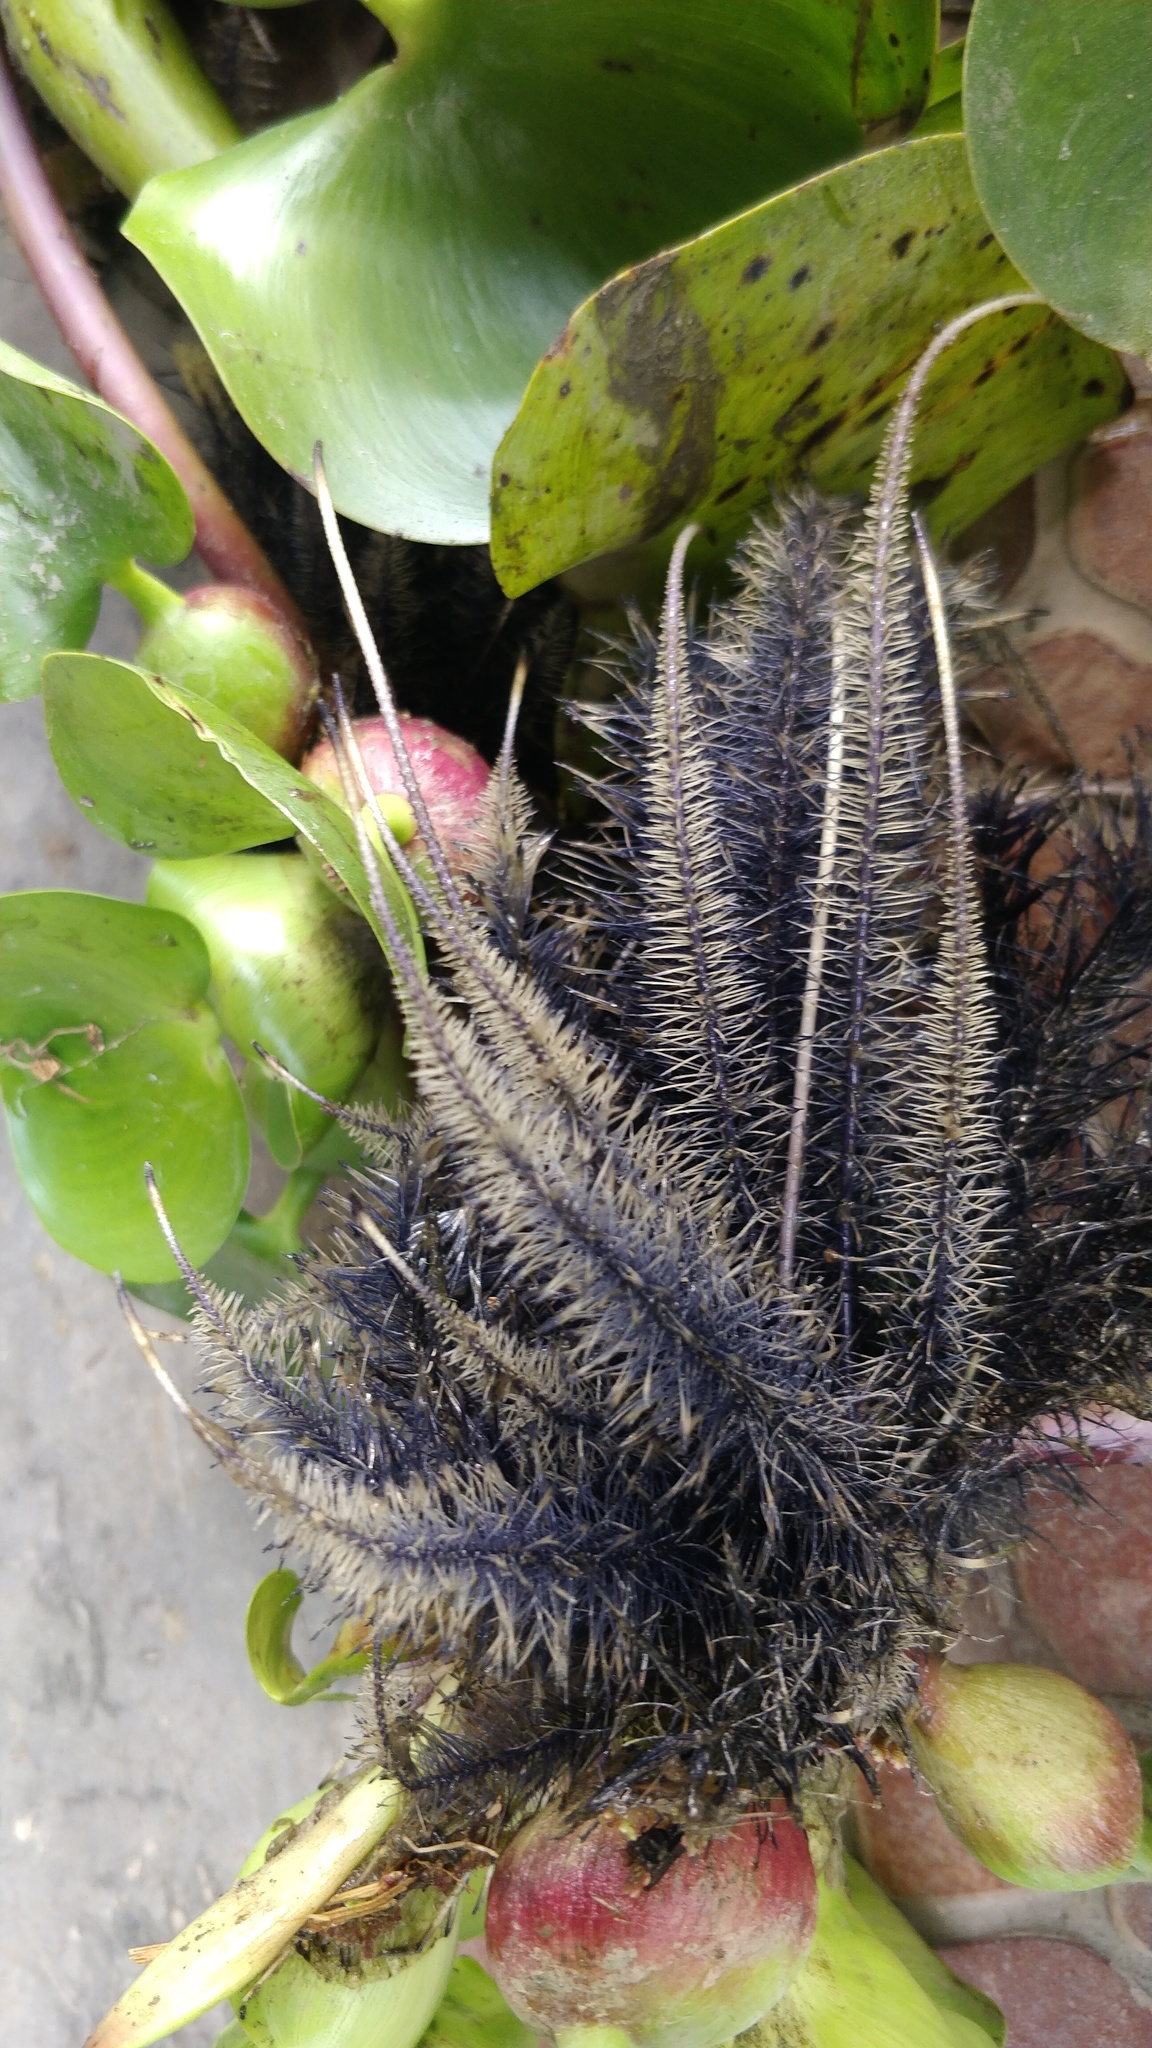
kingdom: Plantae
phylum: Tracheophyta
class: Liliopsida
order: Commelinales
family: Pontederiaceae
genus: Pontederia
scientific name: Pontederia crassipes
